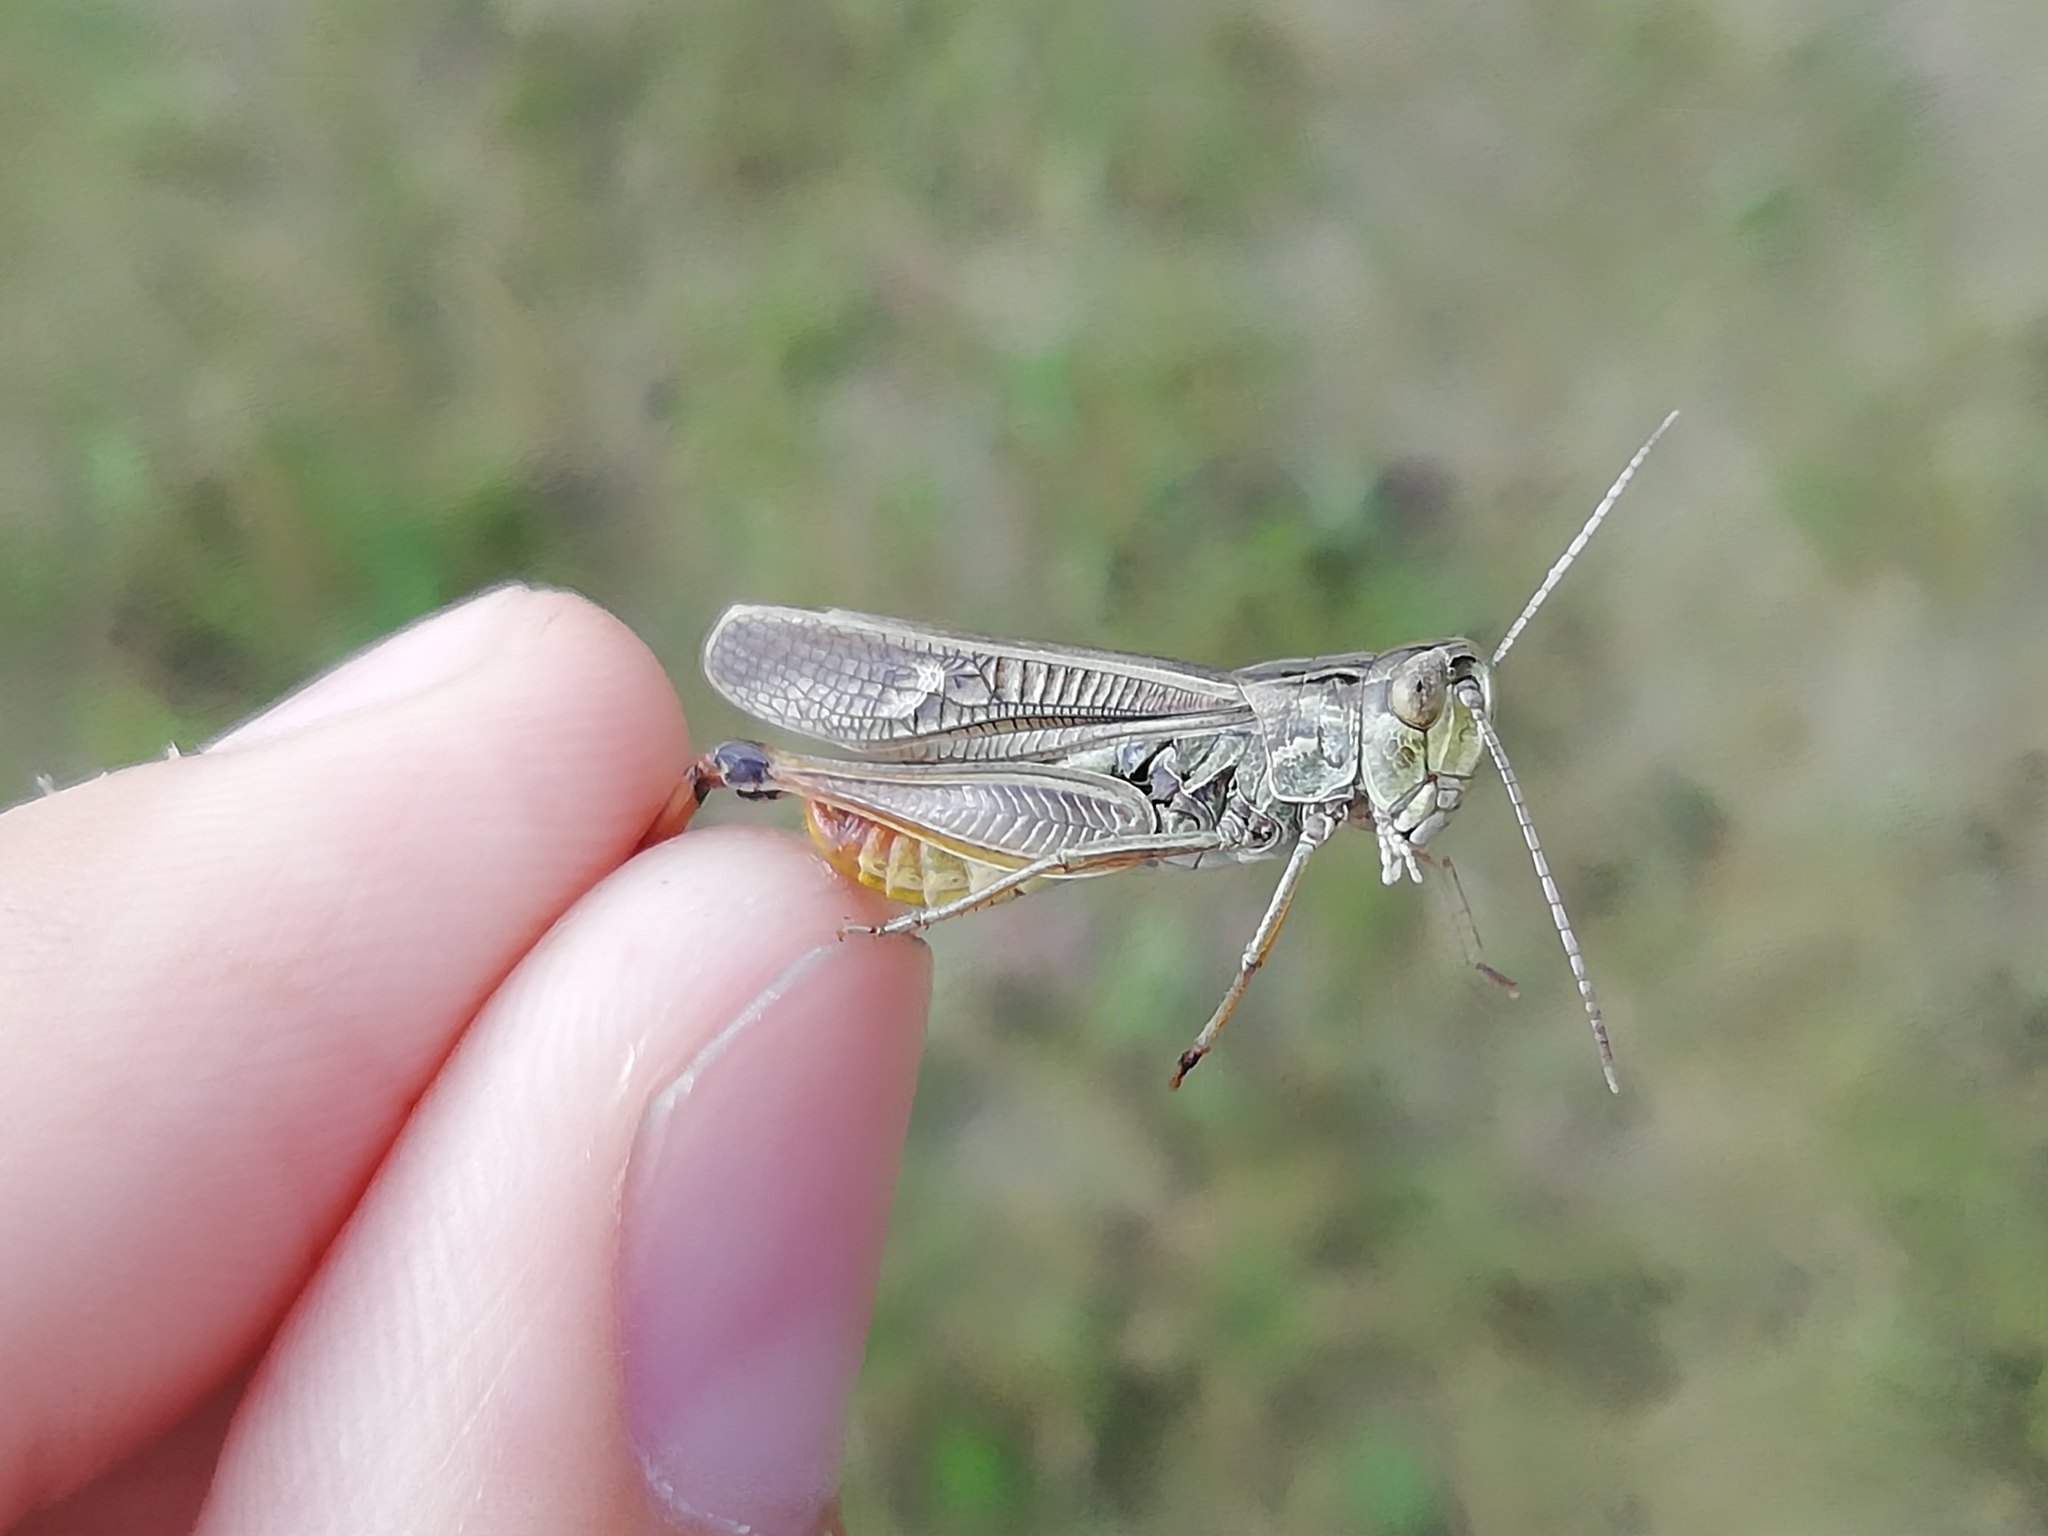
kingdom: Animalia
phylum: Arthropoda
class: Insecta
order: Orthoptera
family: Acrididae
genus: Stenobothrus
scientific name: Stenobothrus lineatus
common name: Stripe-winged grasshopper
